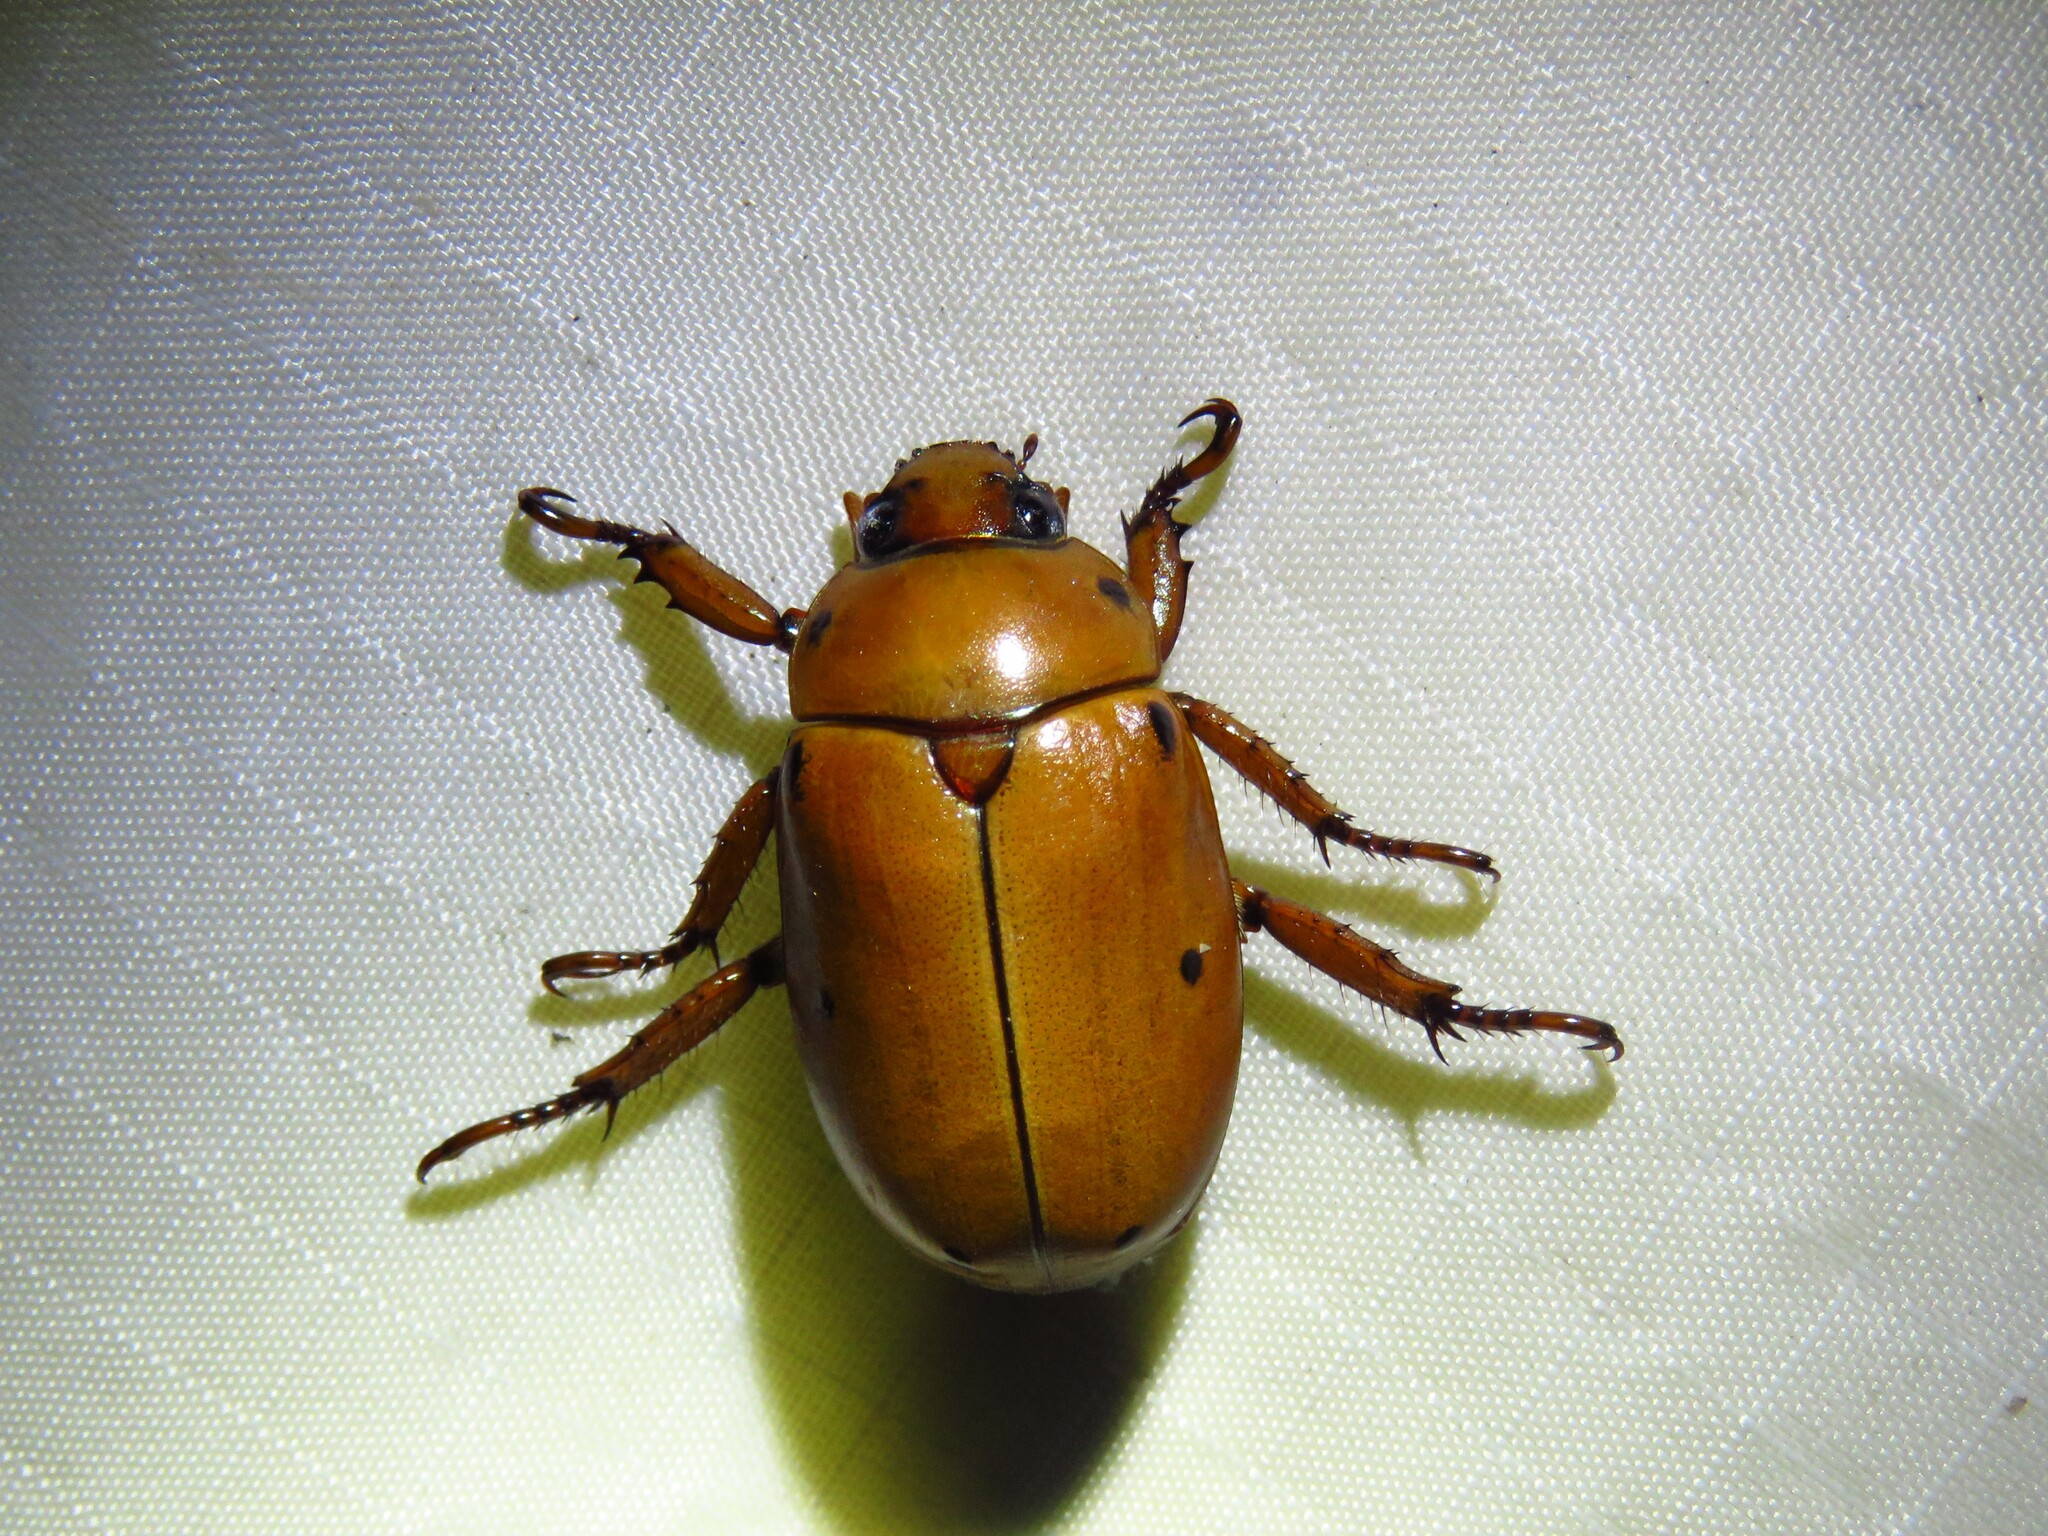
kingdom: Animalia
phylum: Arthropoda
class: Insecta
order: Coleoptera
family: Scarabaeidae
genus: Pelidnota
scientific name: Pelidnota punctata
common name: Grapevine beetle
